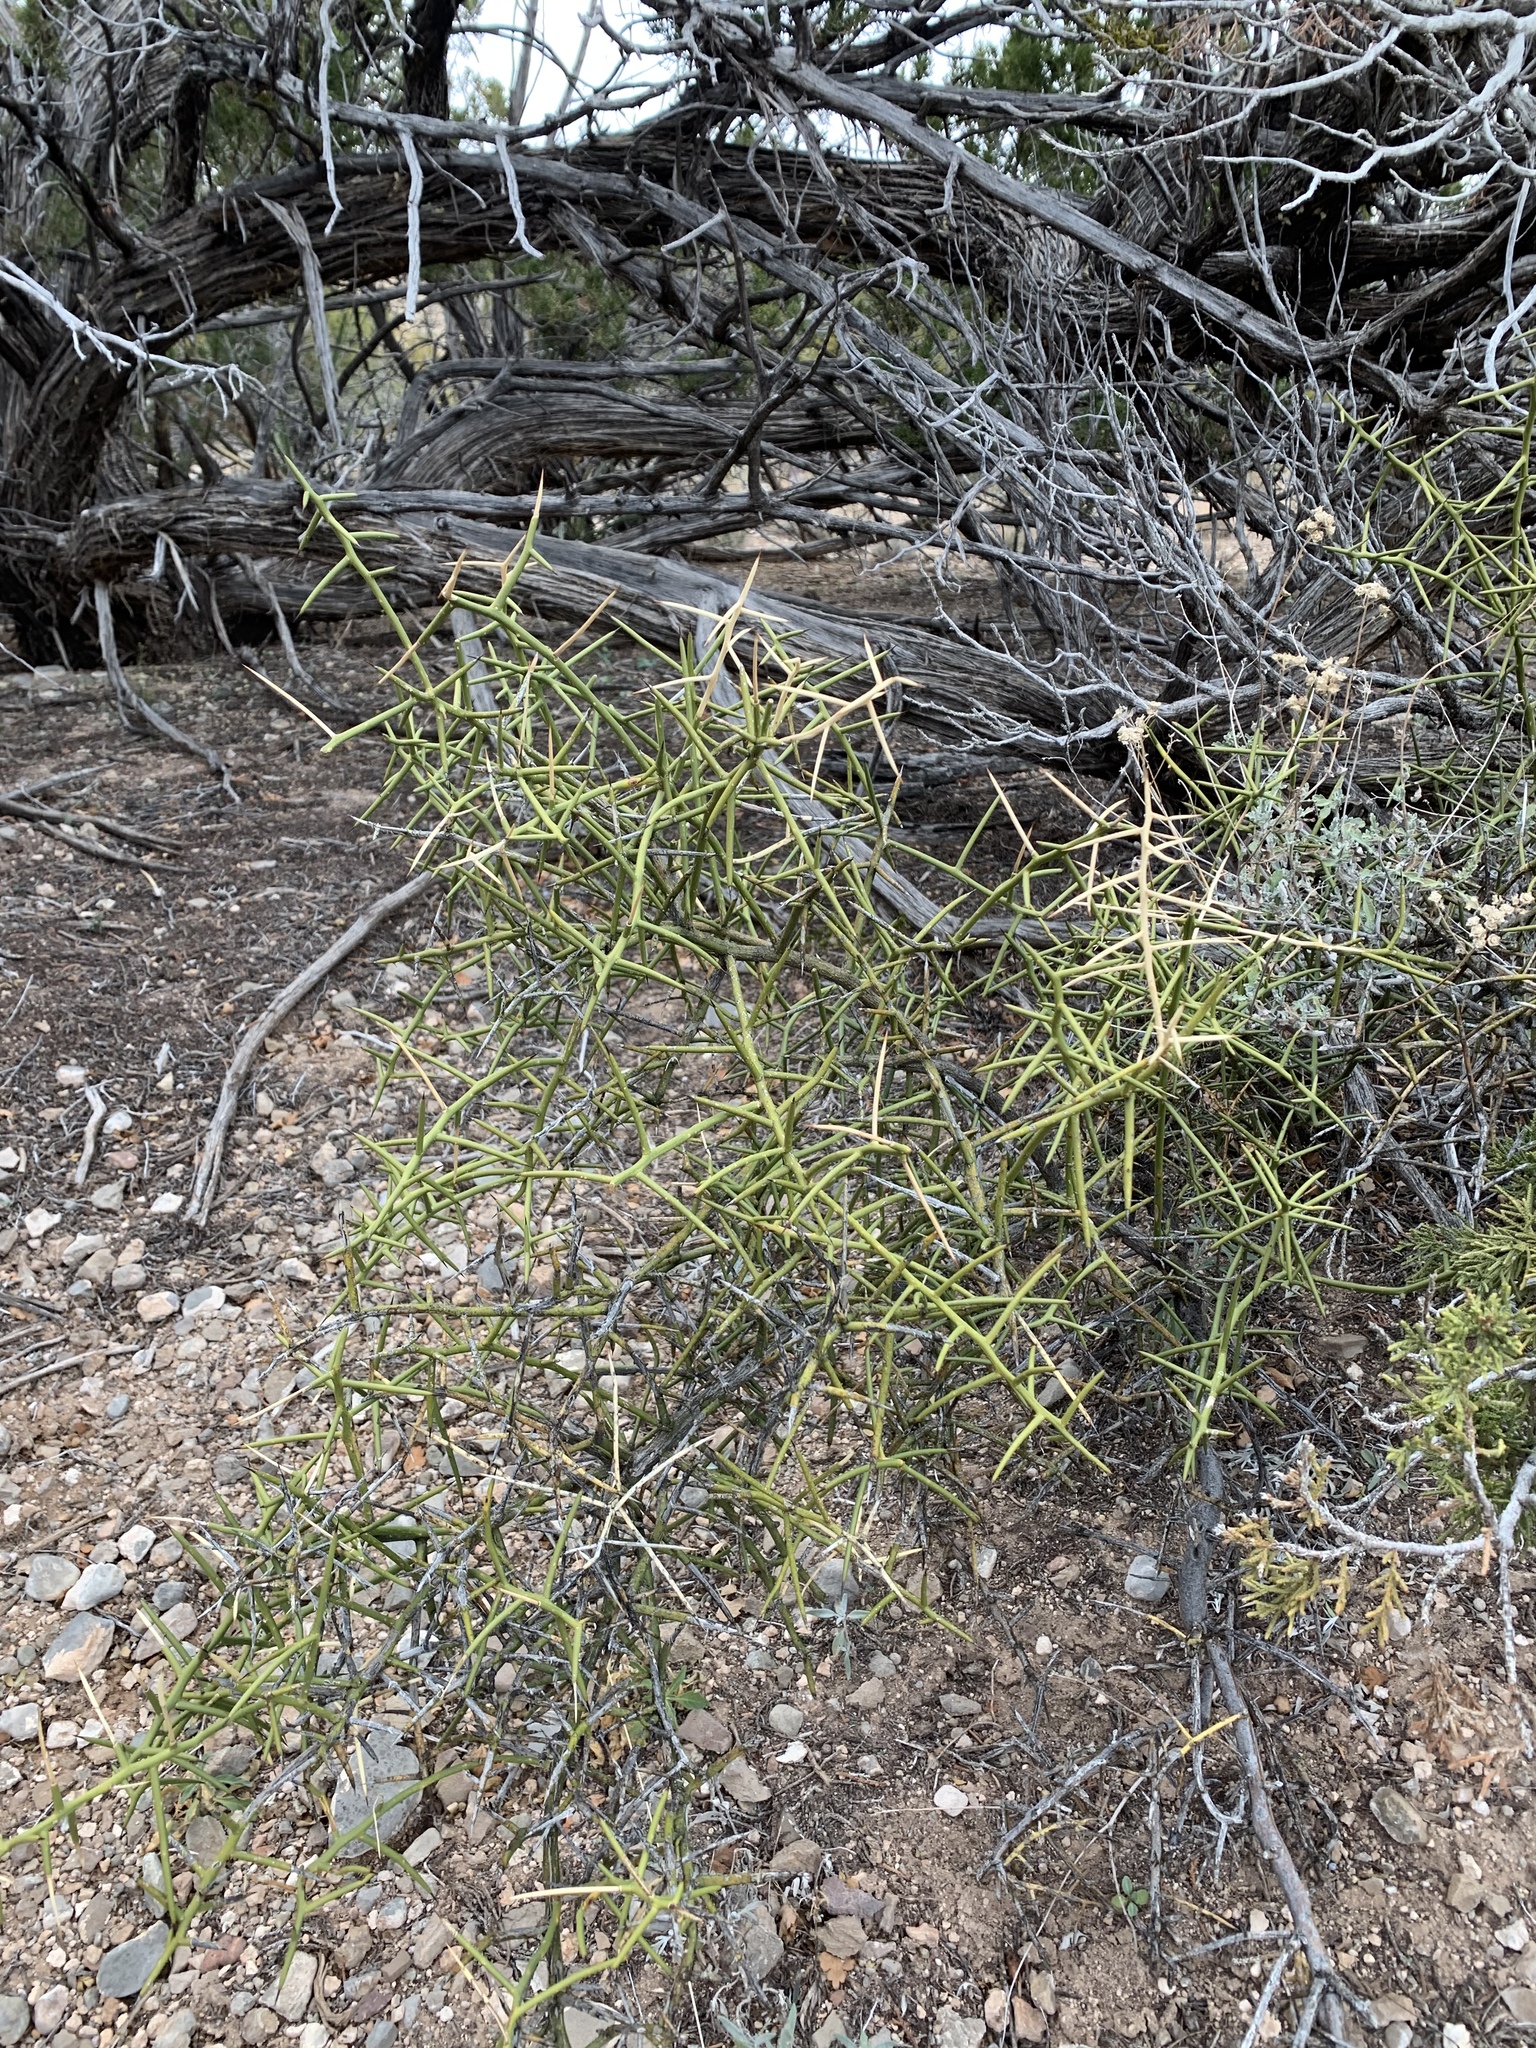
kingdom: Plantae
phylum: Tracheophyta
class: Magnoliopsida
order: Brassicales
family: Koeberliniaceae
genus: Koeberlinia
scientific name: Koeberlinia spinosa
